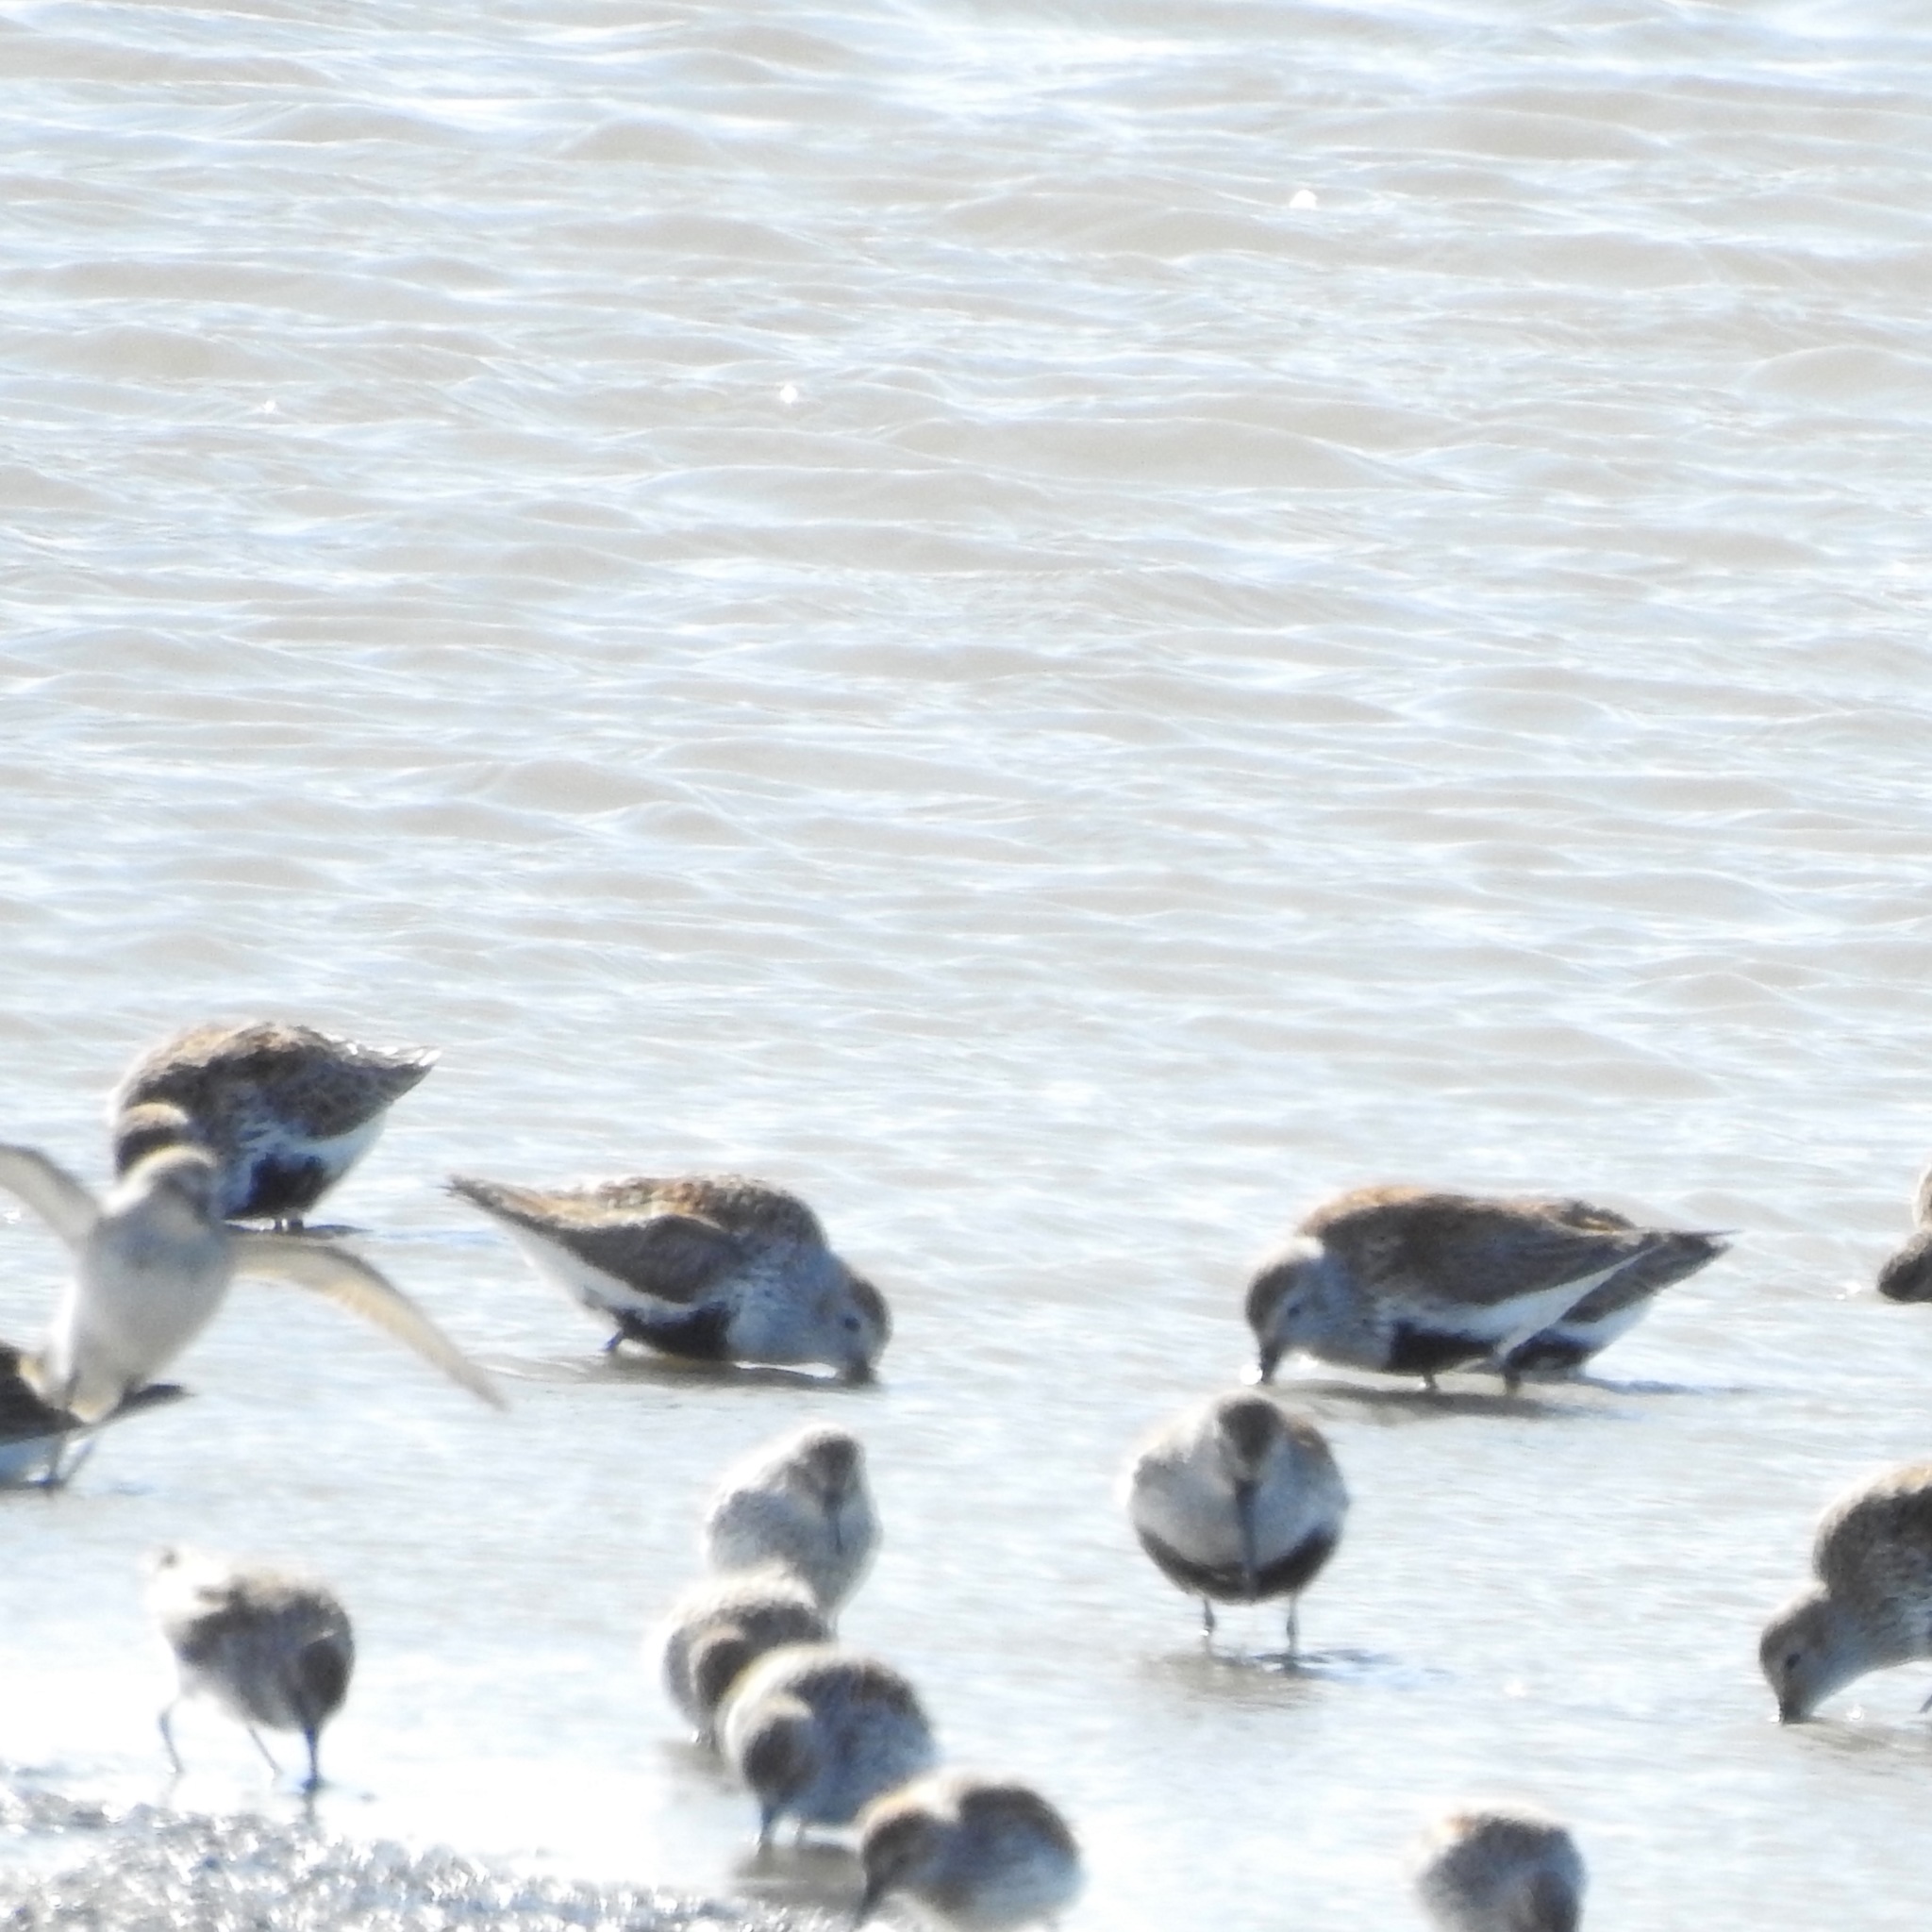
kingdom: Animalia
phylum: Chordata
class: Aves
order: Charadriiformes
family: Scolopacidae
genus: Calidris
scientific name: Calidris alpina
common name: Dunlin
